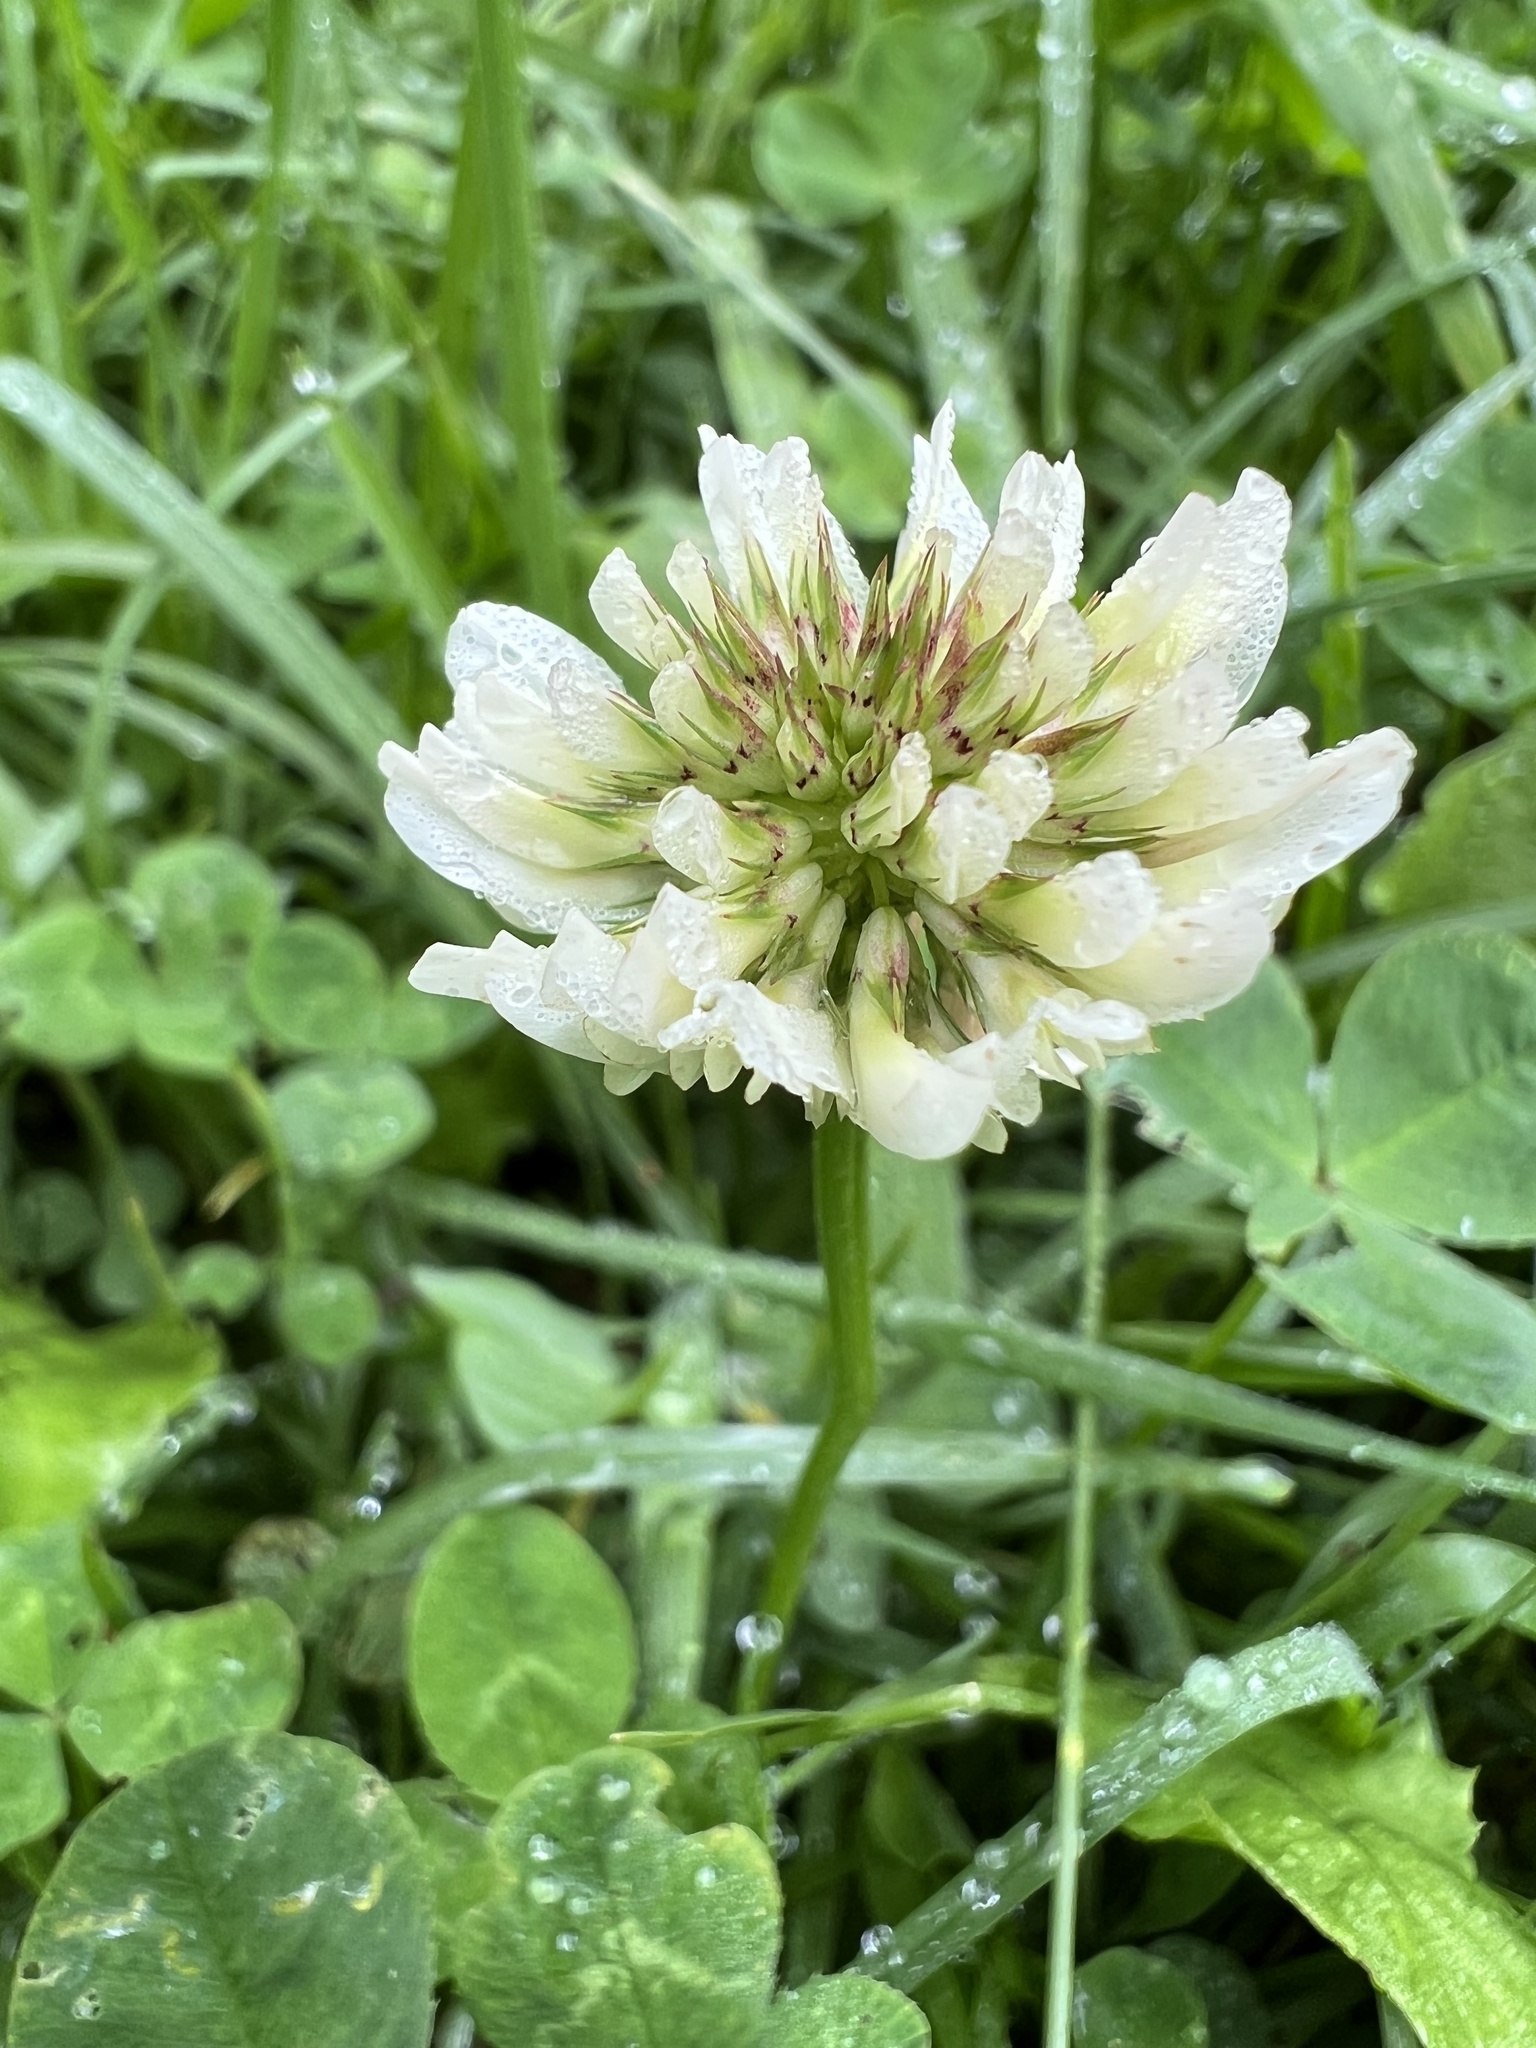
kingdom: Plantae
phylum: Tracheophyta
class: Magnoliopsida
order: Fabales
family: Fabaceae
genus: Trifolium
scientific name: Trifolium repens
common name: White clover
